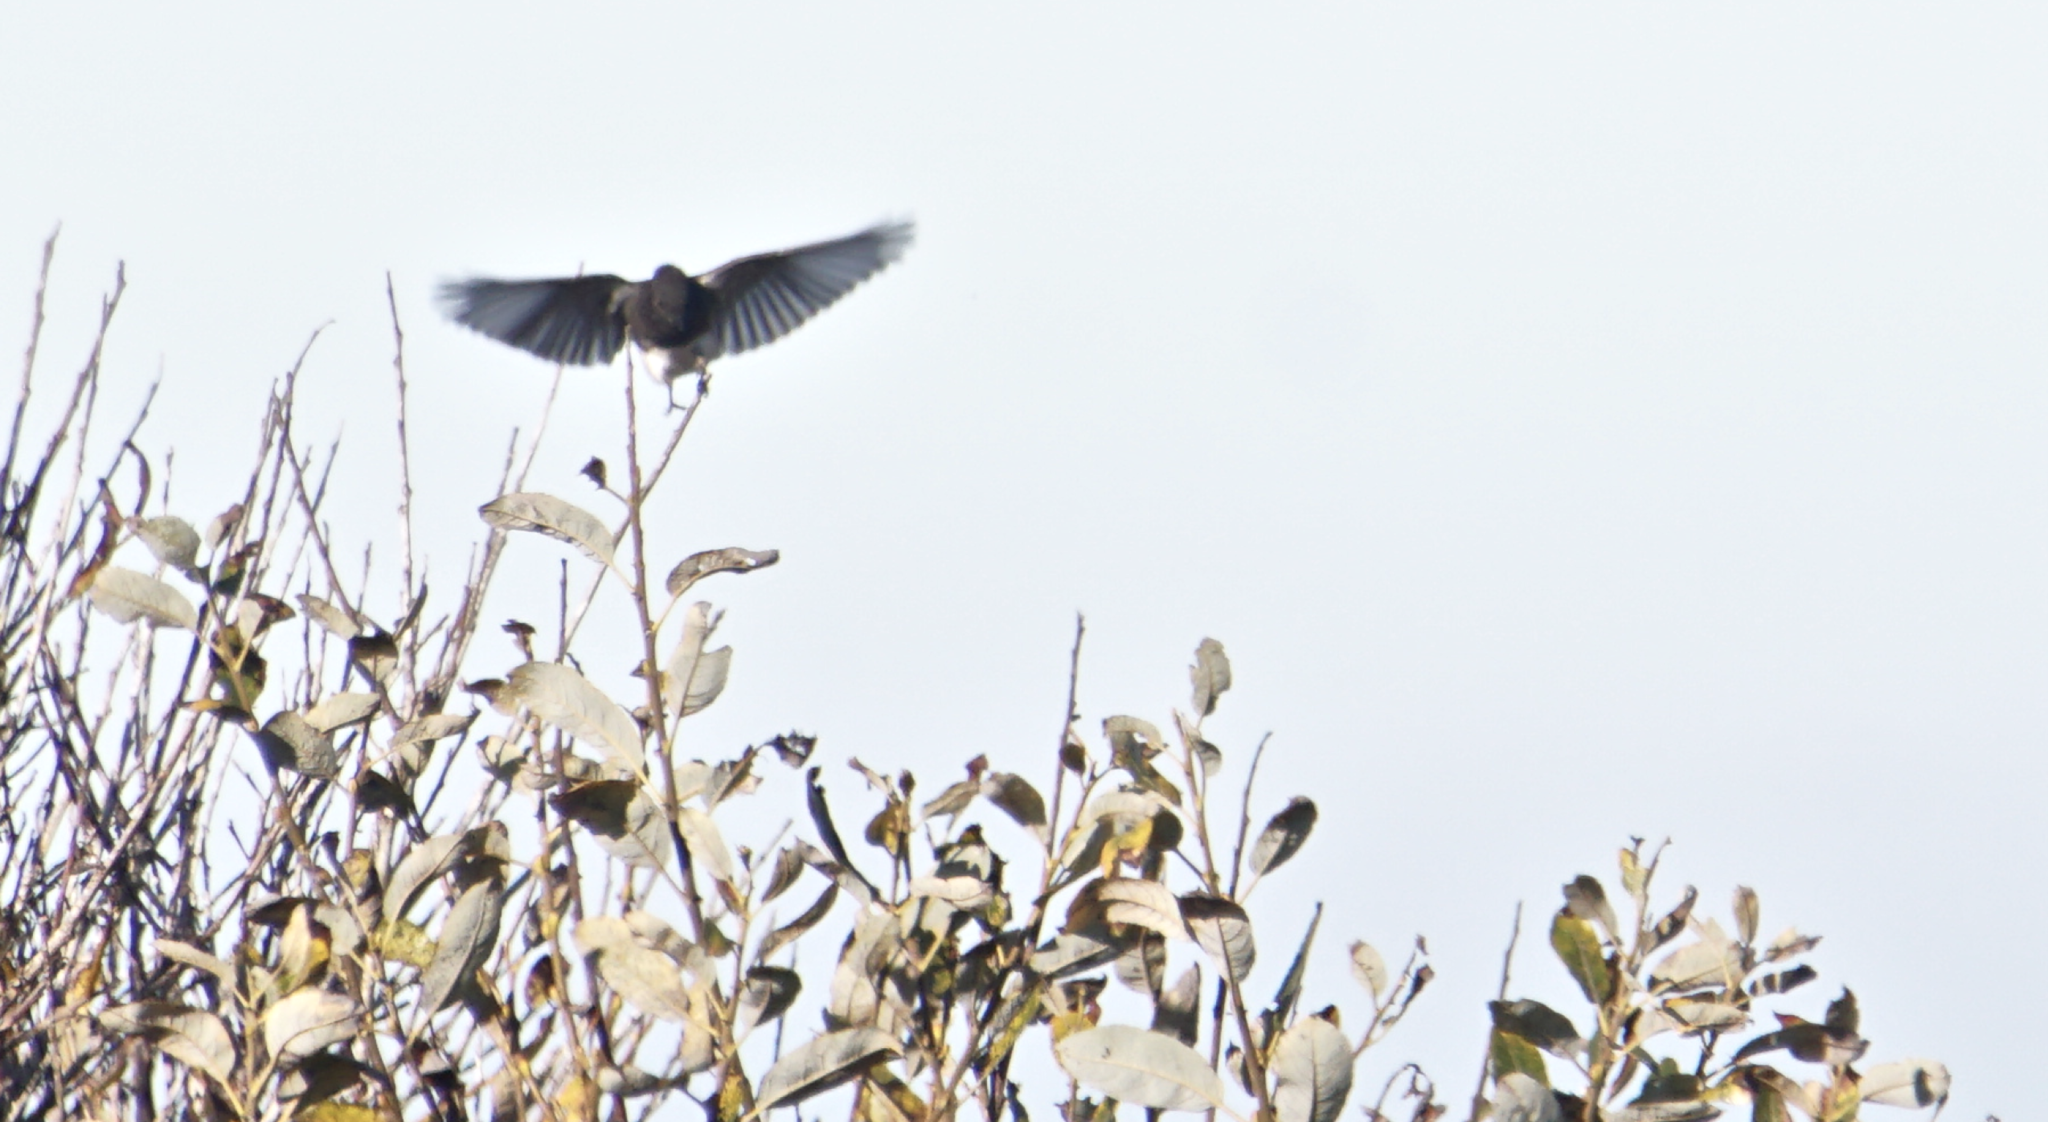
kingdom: Animalia
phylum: Chordata
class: Aves
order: Passeriformes
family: Tyrannidae
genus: Sayornis
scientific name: Sayornis nigricans
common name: Black phoebe
